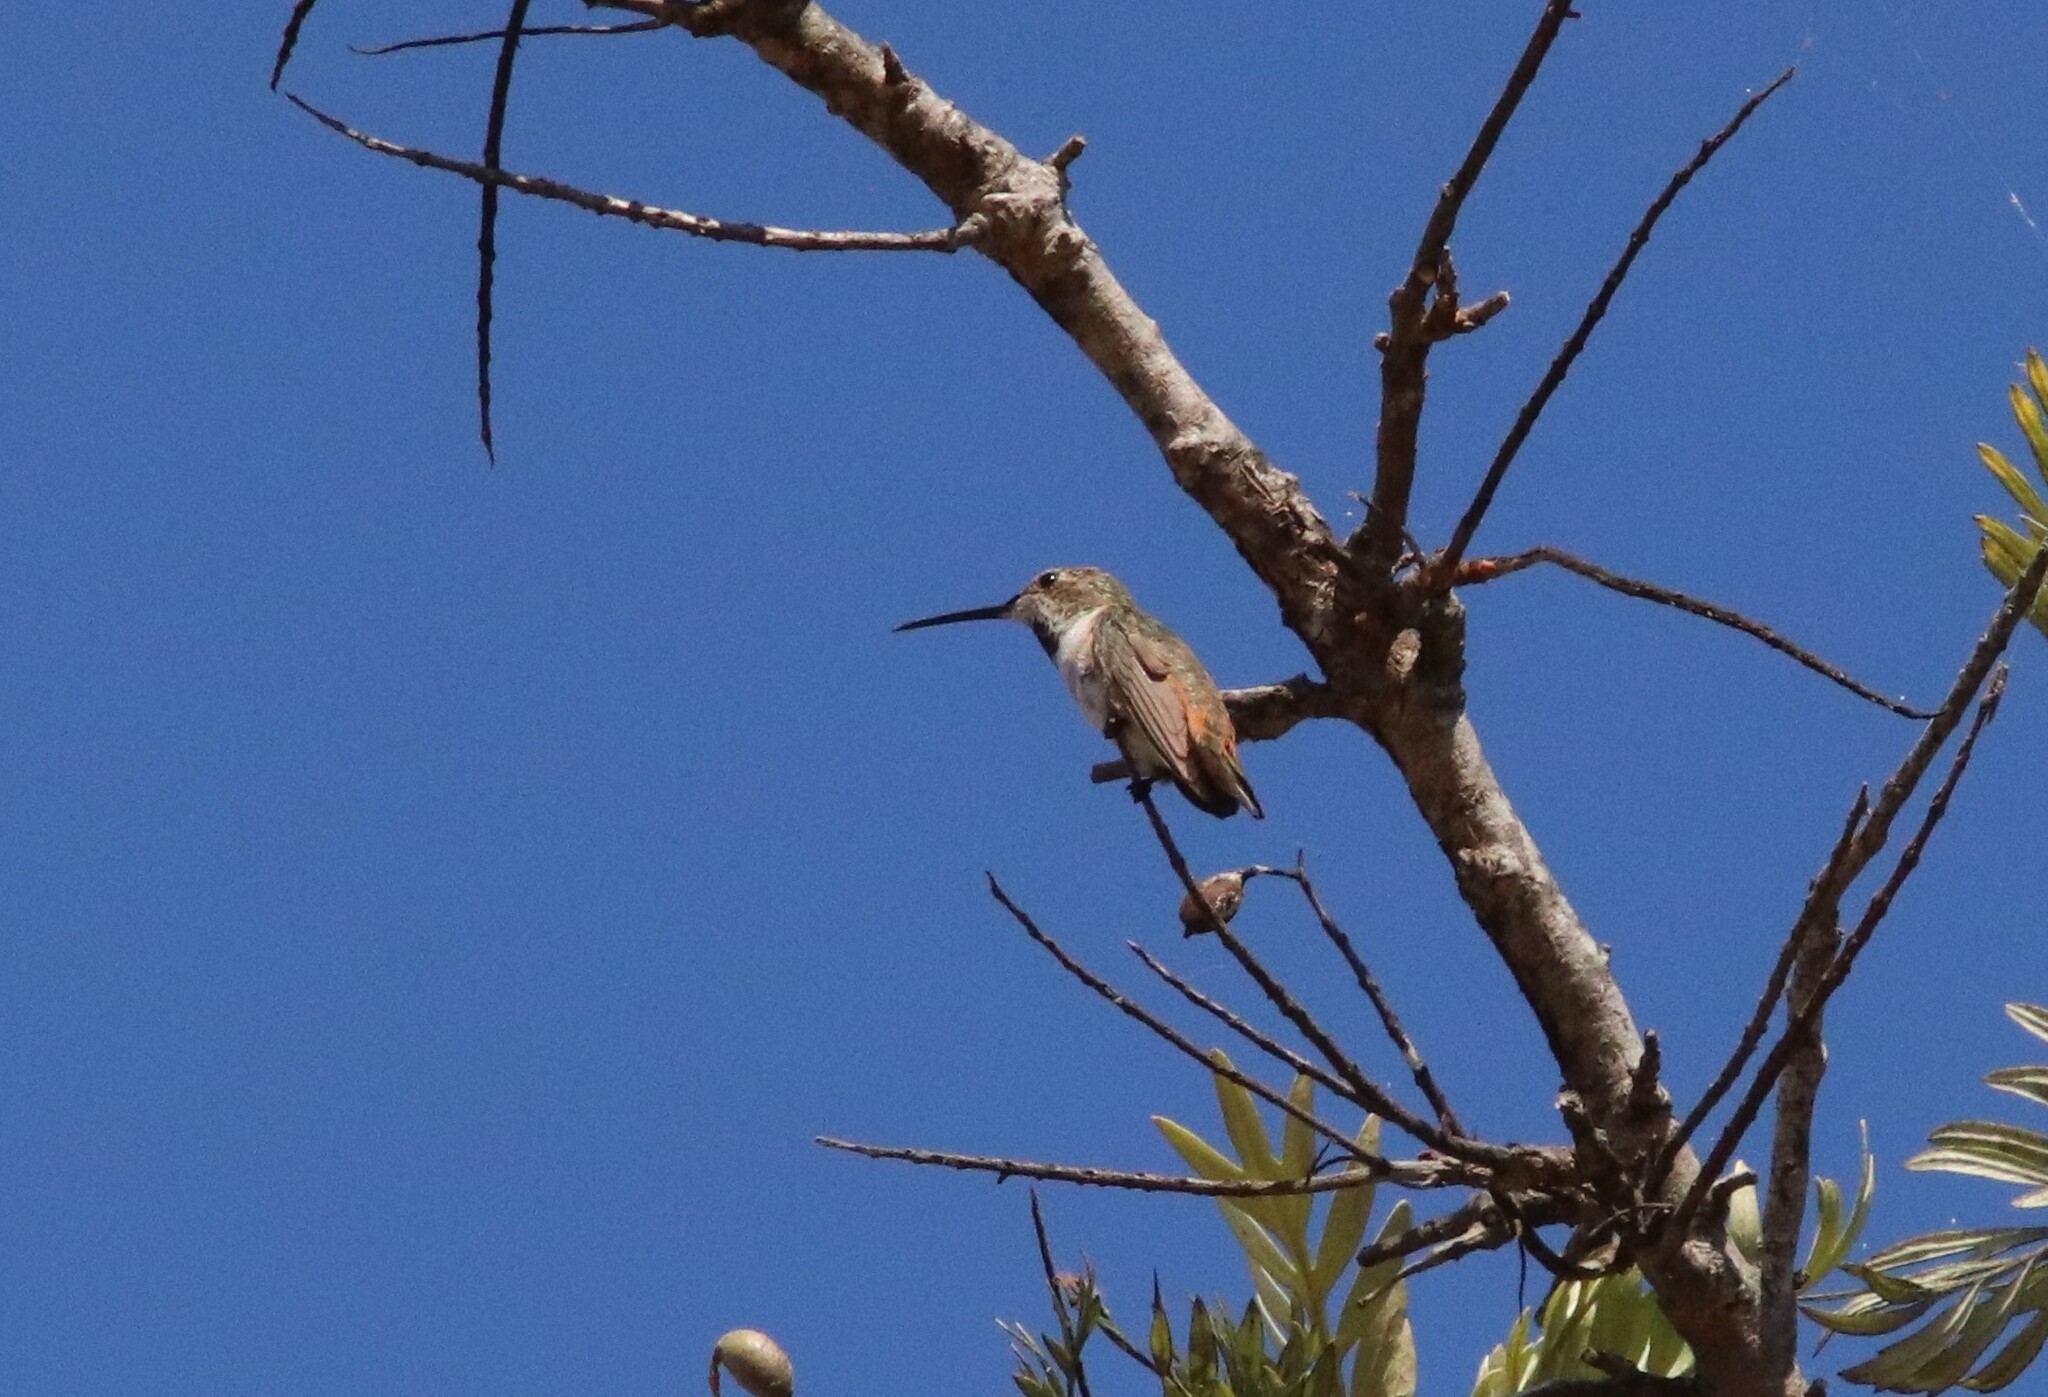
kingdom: Animalia
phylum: Chordata
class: Aves
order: Apodiformes
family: Trochilidae
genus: Selasphorus
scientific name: Selasphorus sasin
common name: Allen's hummingbird
